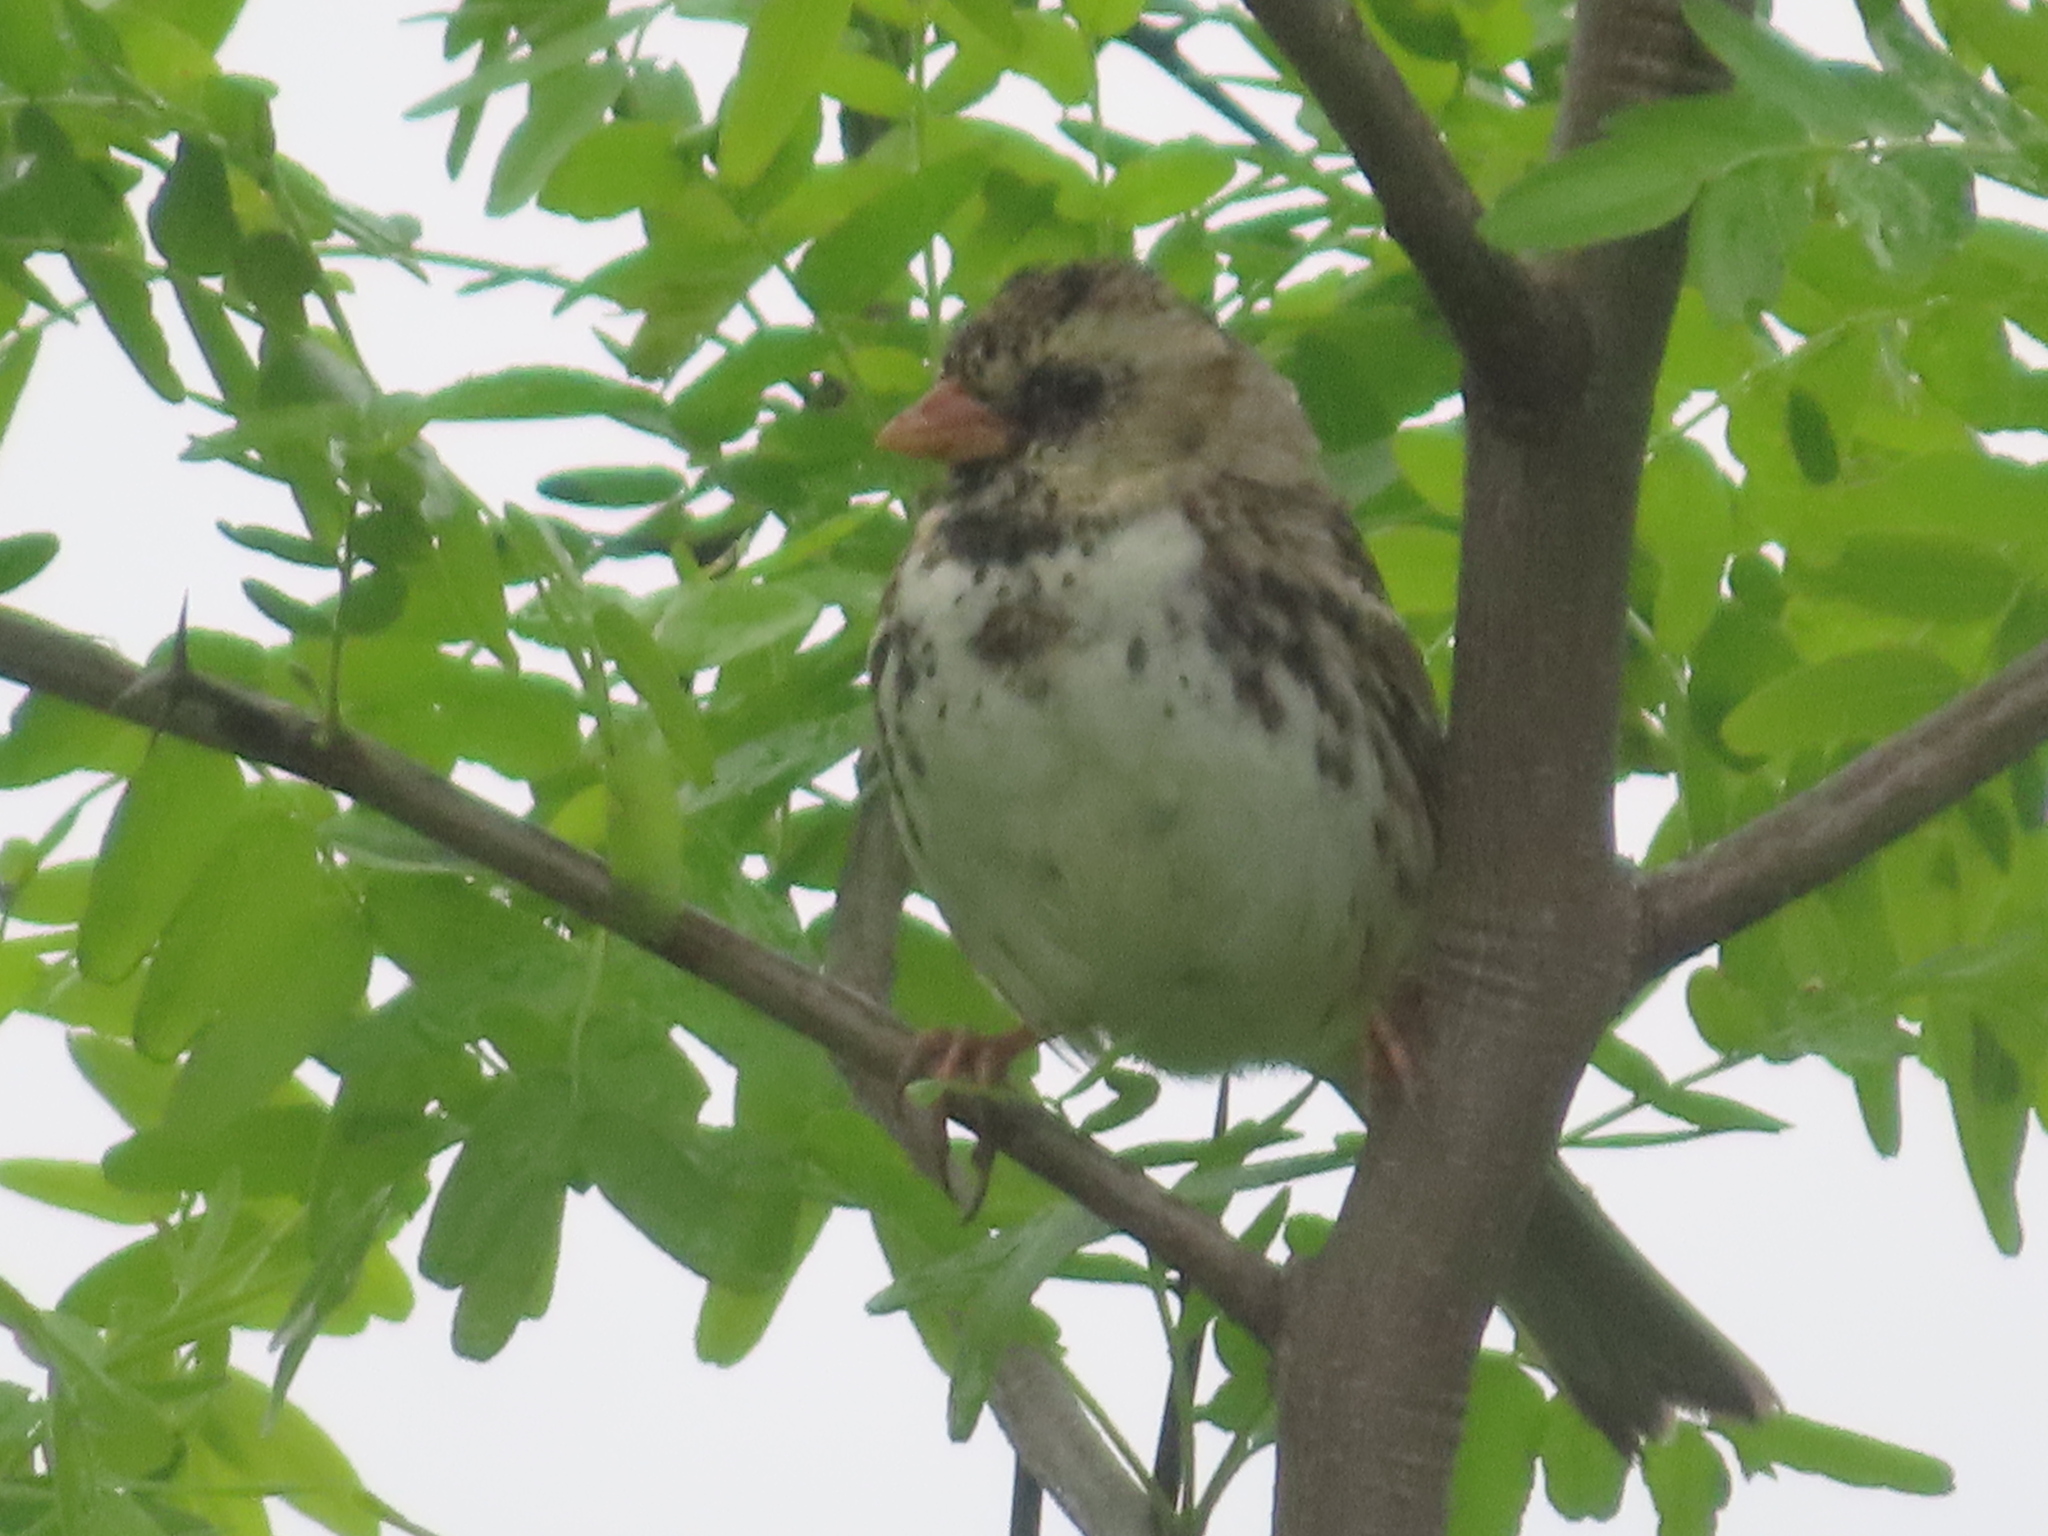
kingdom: Animalia
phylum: Chordata
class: Aves
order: Passeriformes
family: Passerellidae
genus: Zonotrichia
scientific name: Zonotrichia querula
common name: Harris's sparrow
